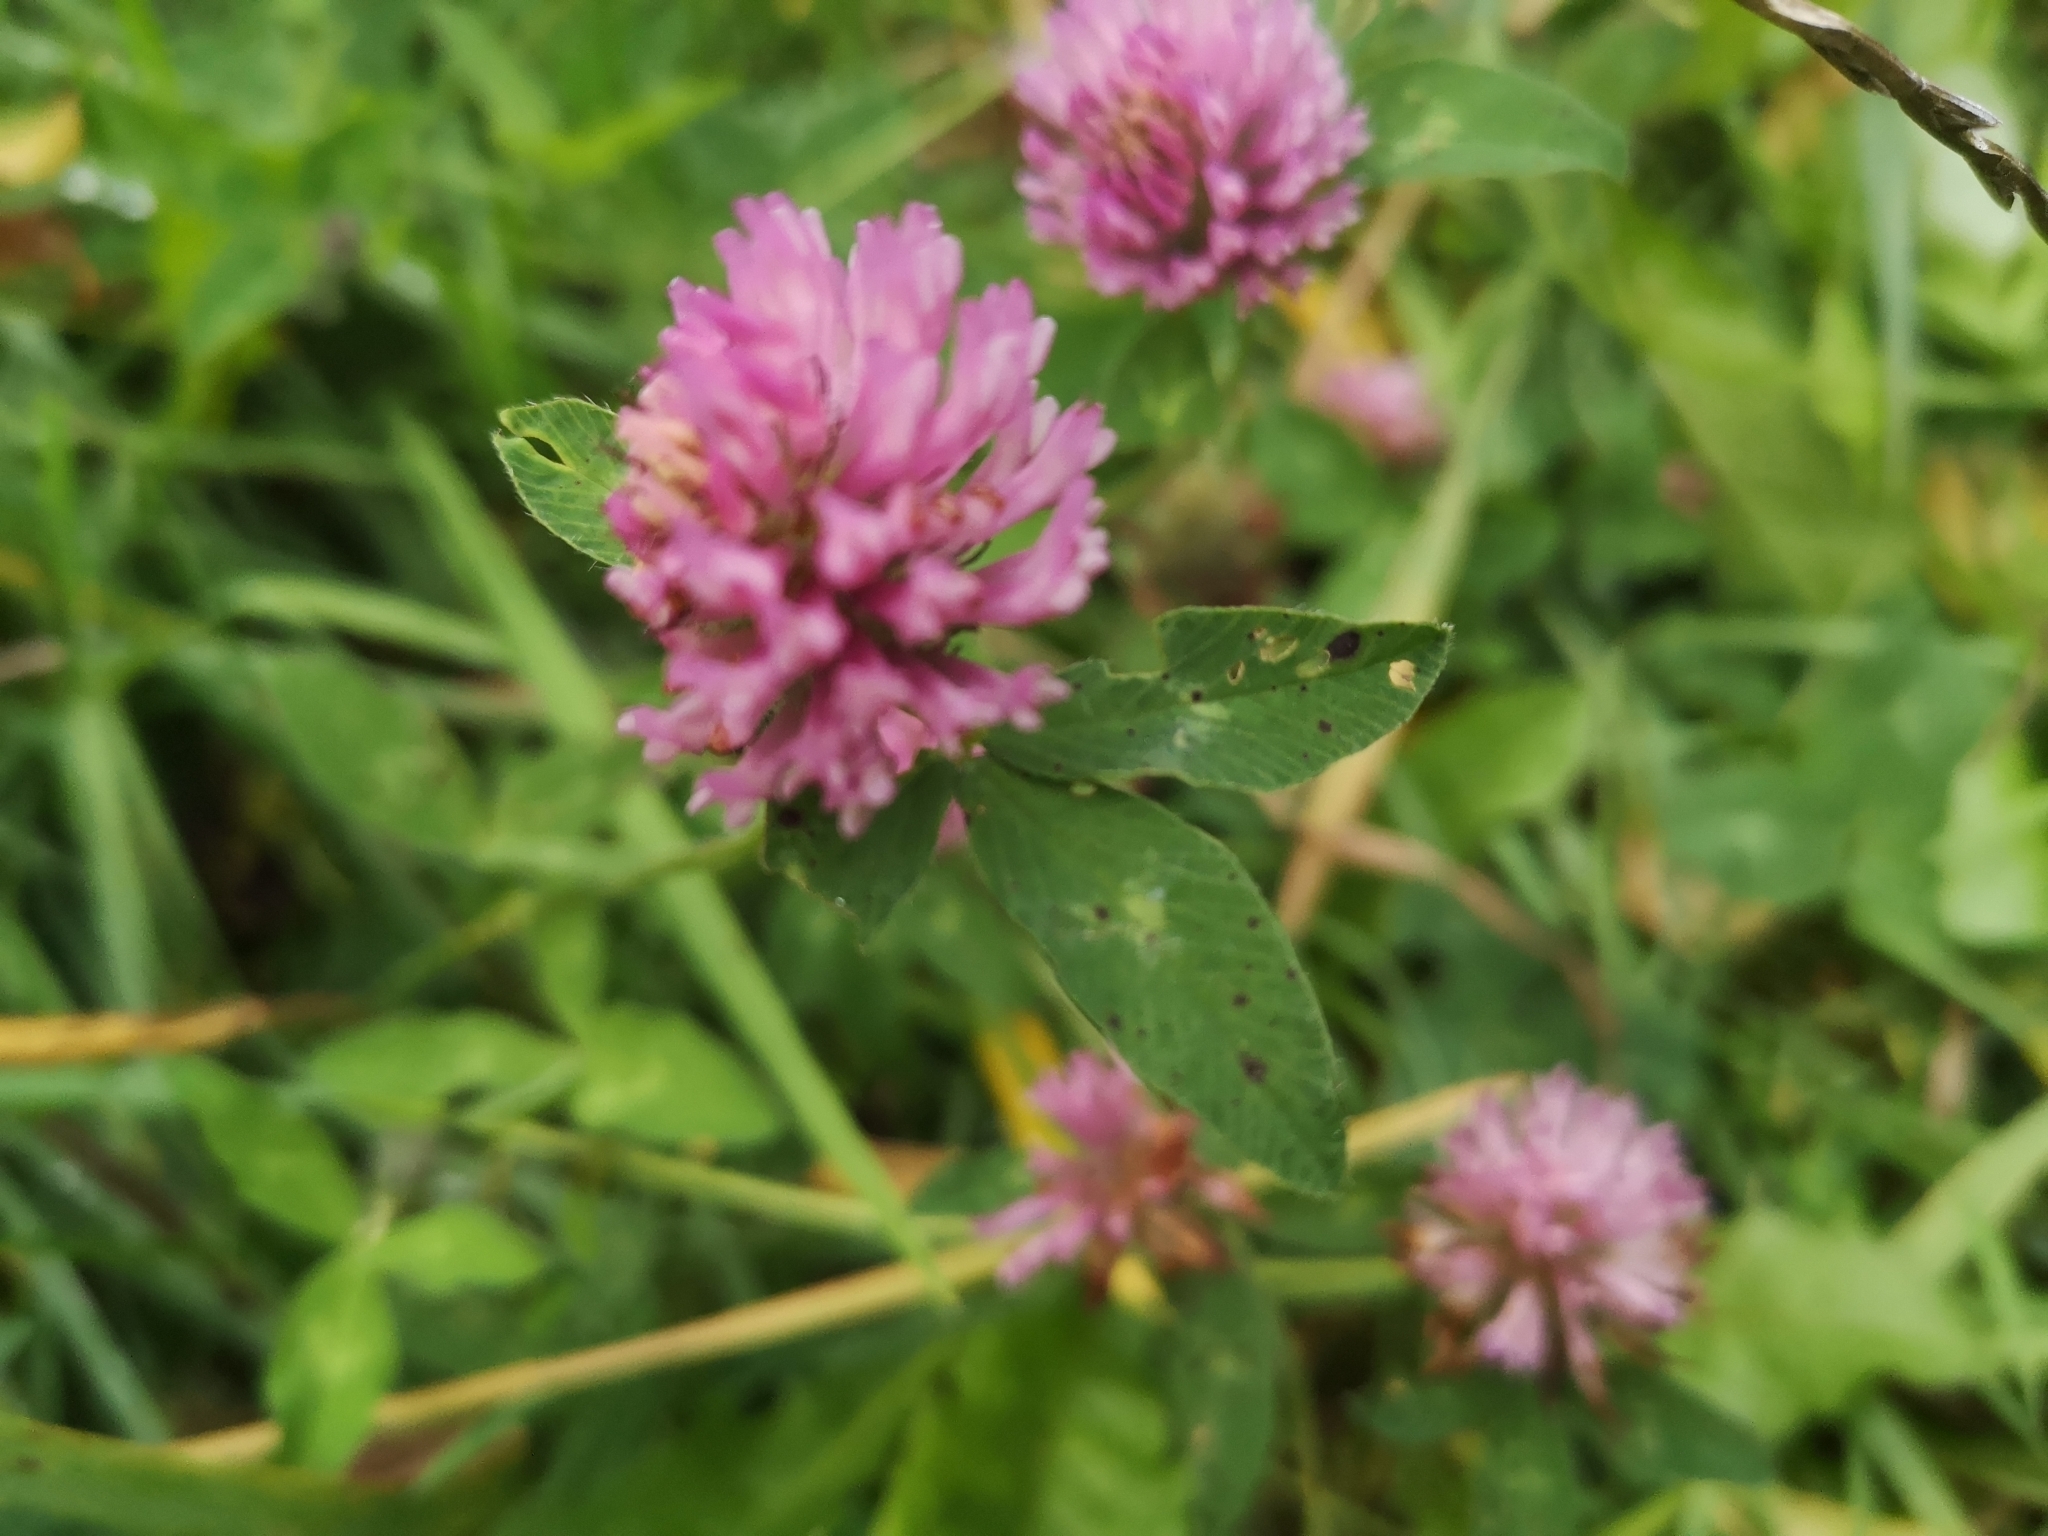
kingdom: Plantae
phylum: Tracheophyta
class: Magnoliopsida
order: Fabales
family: Fabaceae
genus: Trifolium
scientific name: Trifolium pratense
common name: Red clover
